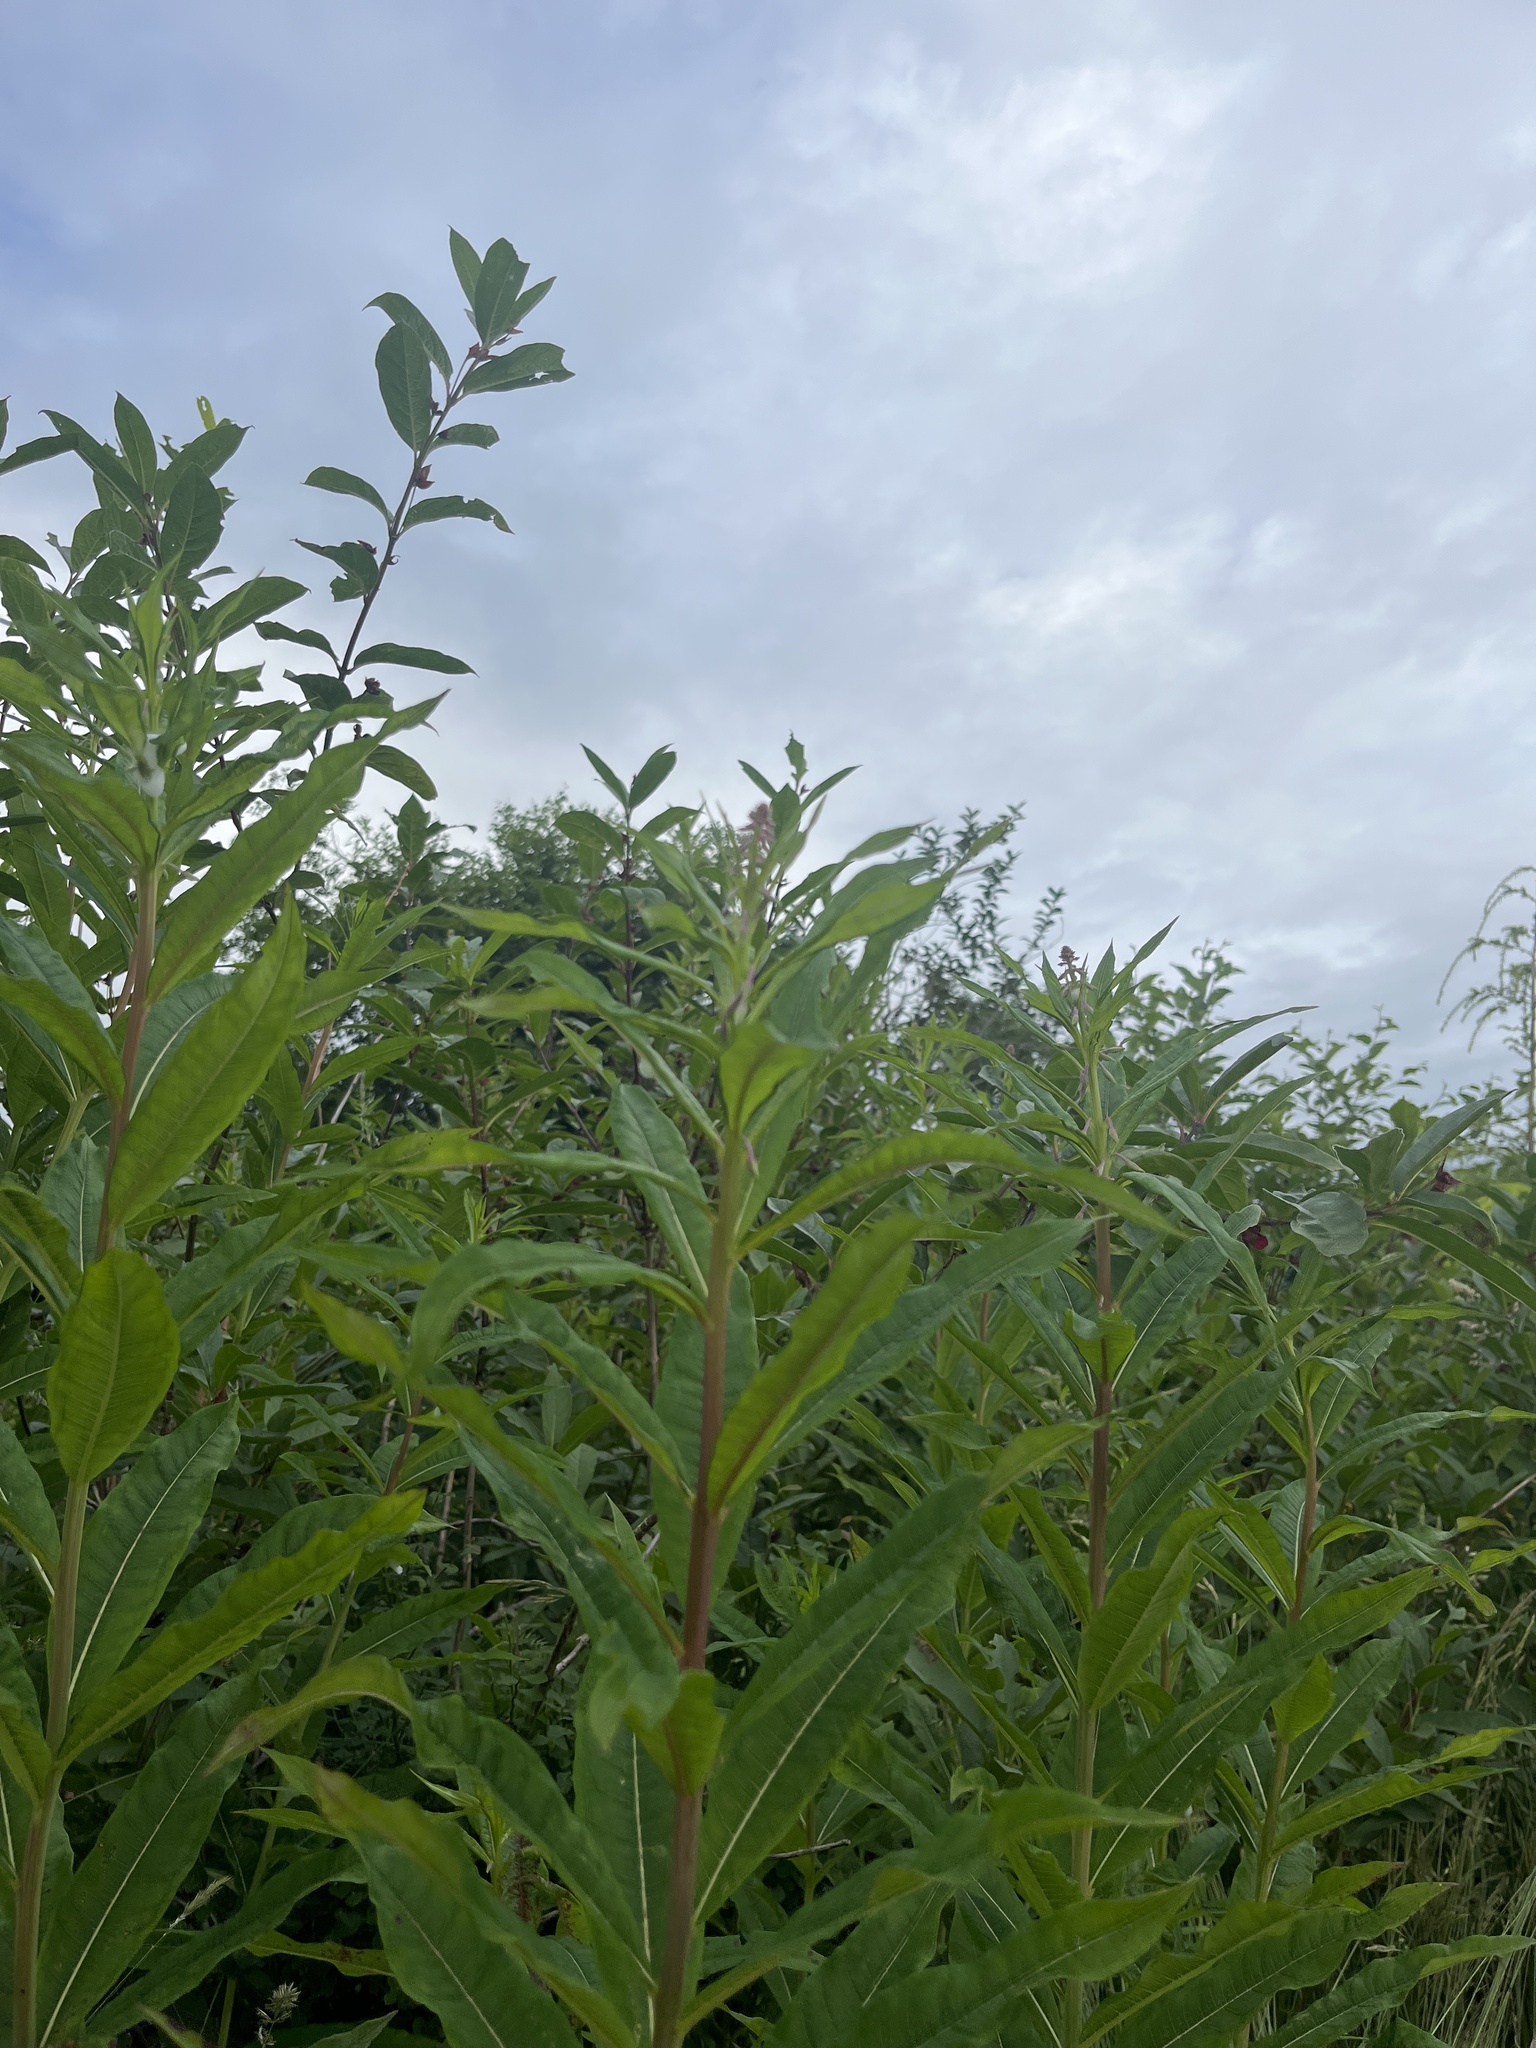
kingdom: Plantae
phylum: Tracheophyta
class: Magnoliopsida
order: Myrtales
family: Onagraceae
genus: Chamaenerion
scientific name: Chamaenerion angustifolium
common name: Fireweed
